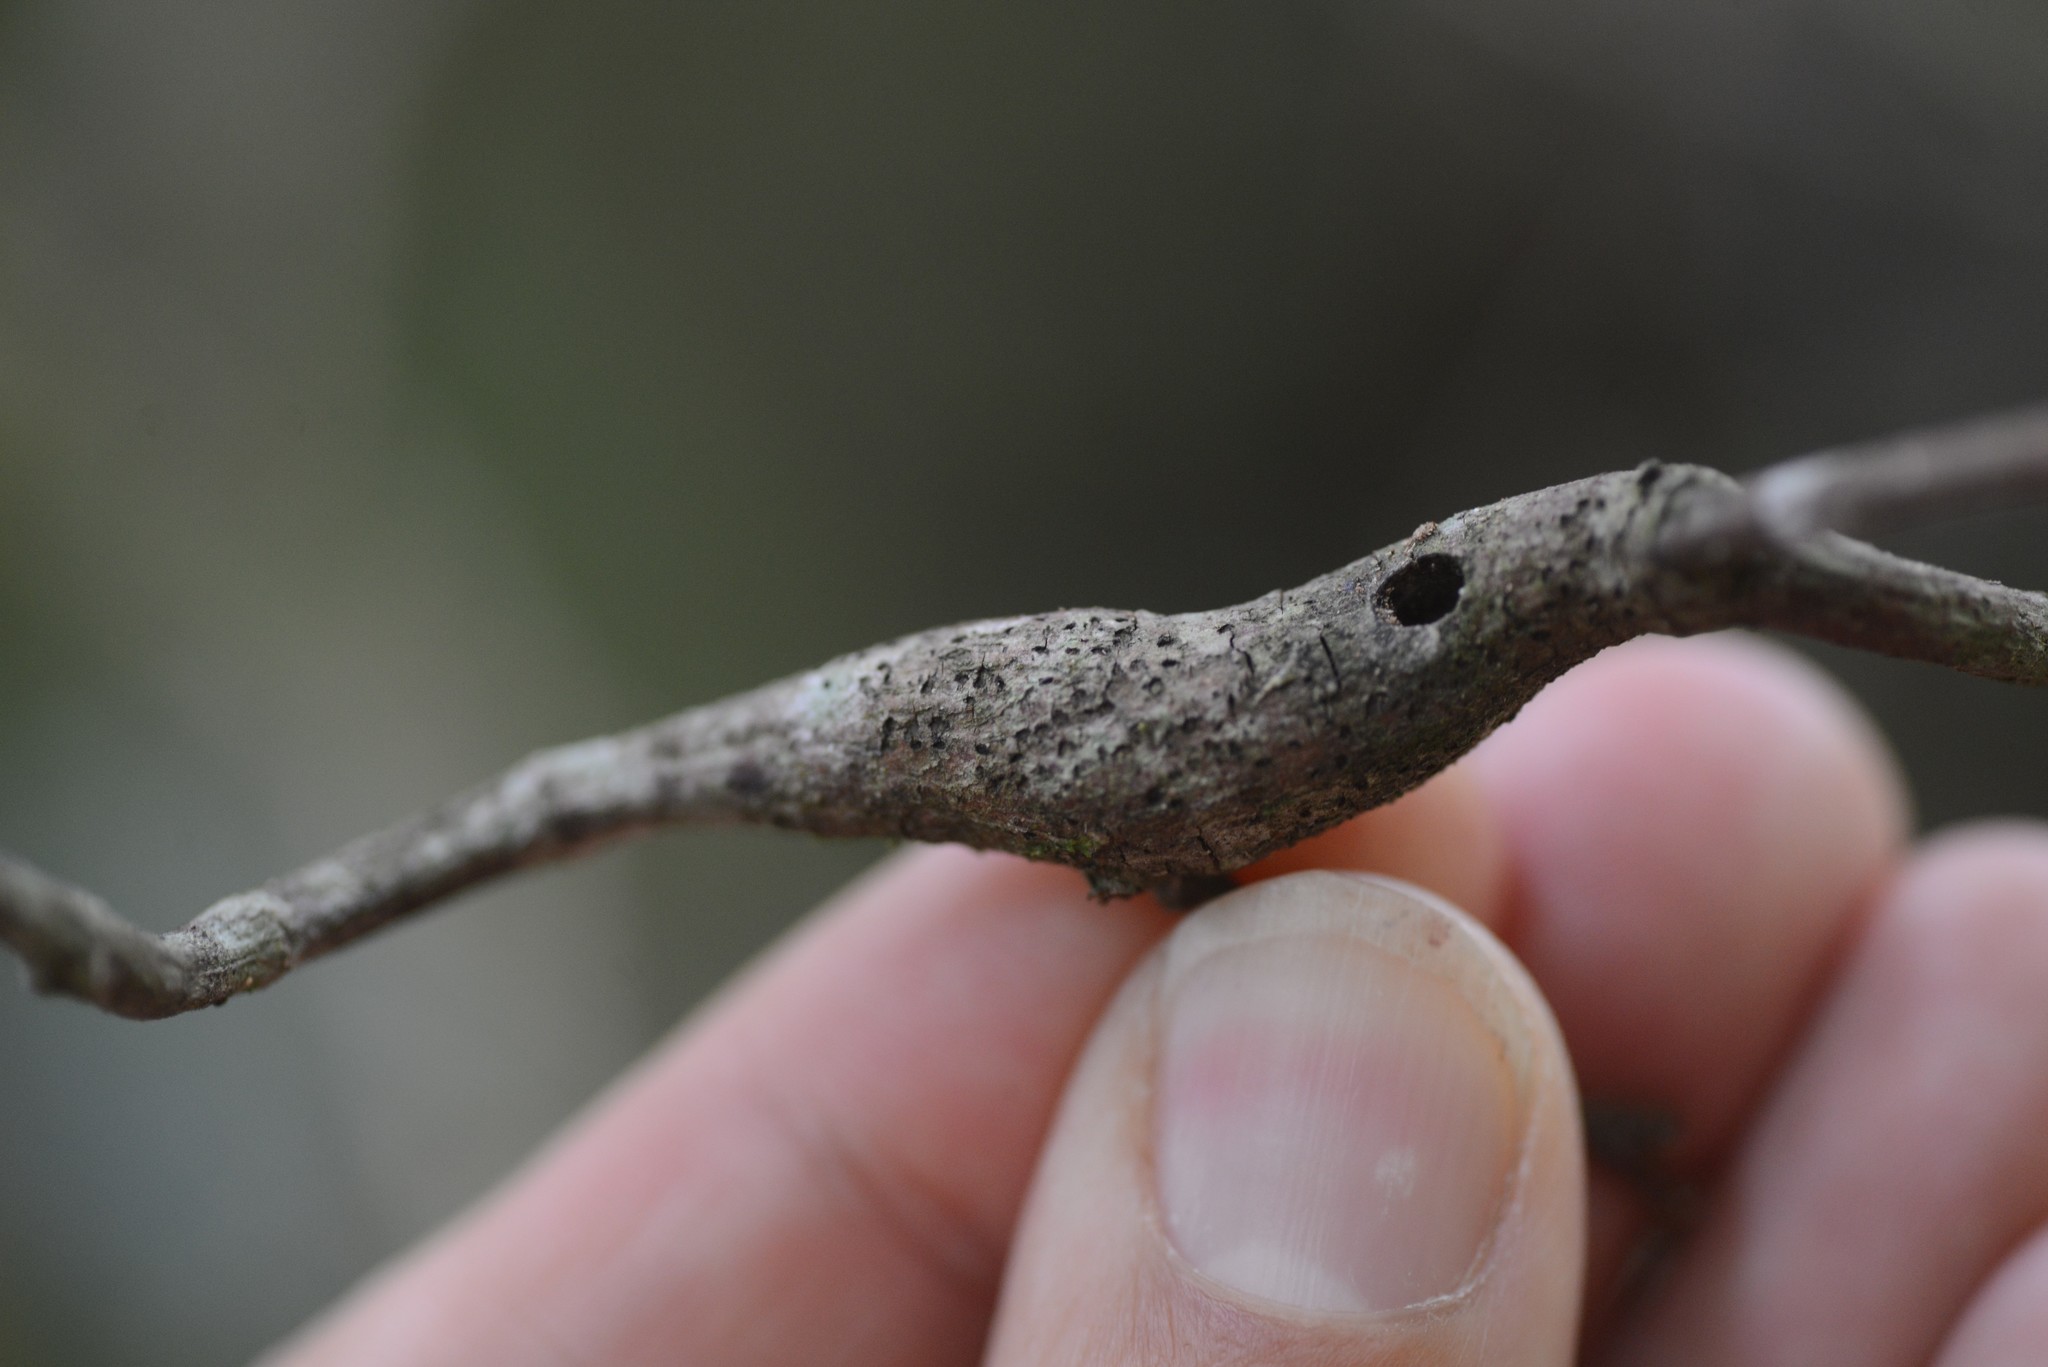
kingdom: Animalia
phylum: Arthropoda
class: Insecta
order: Lepidoptera
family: Thyrididae
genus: Morova
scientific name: Morova subfasciata
